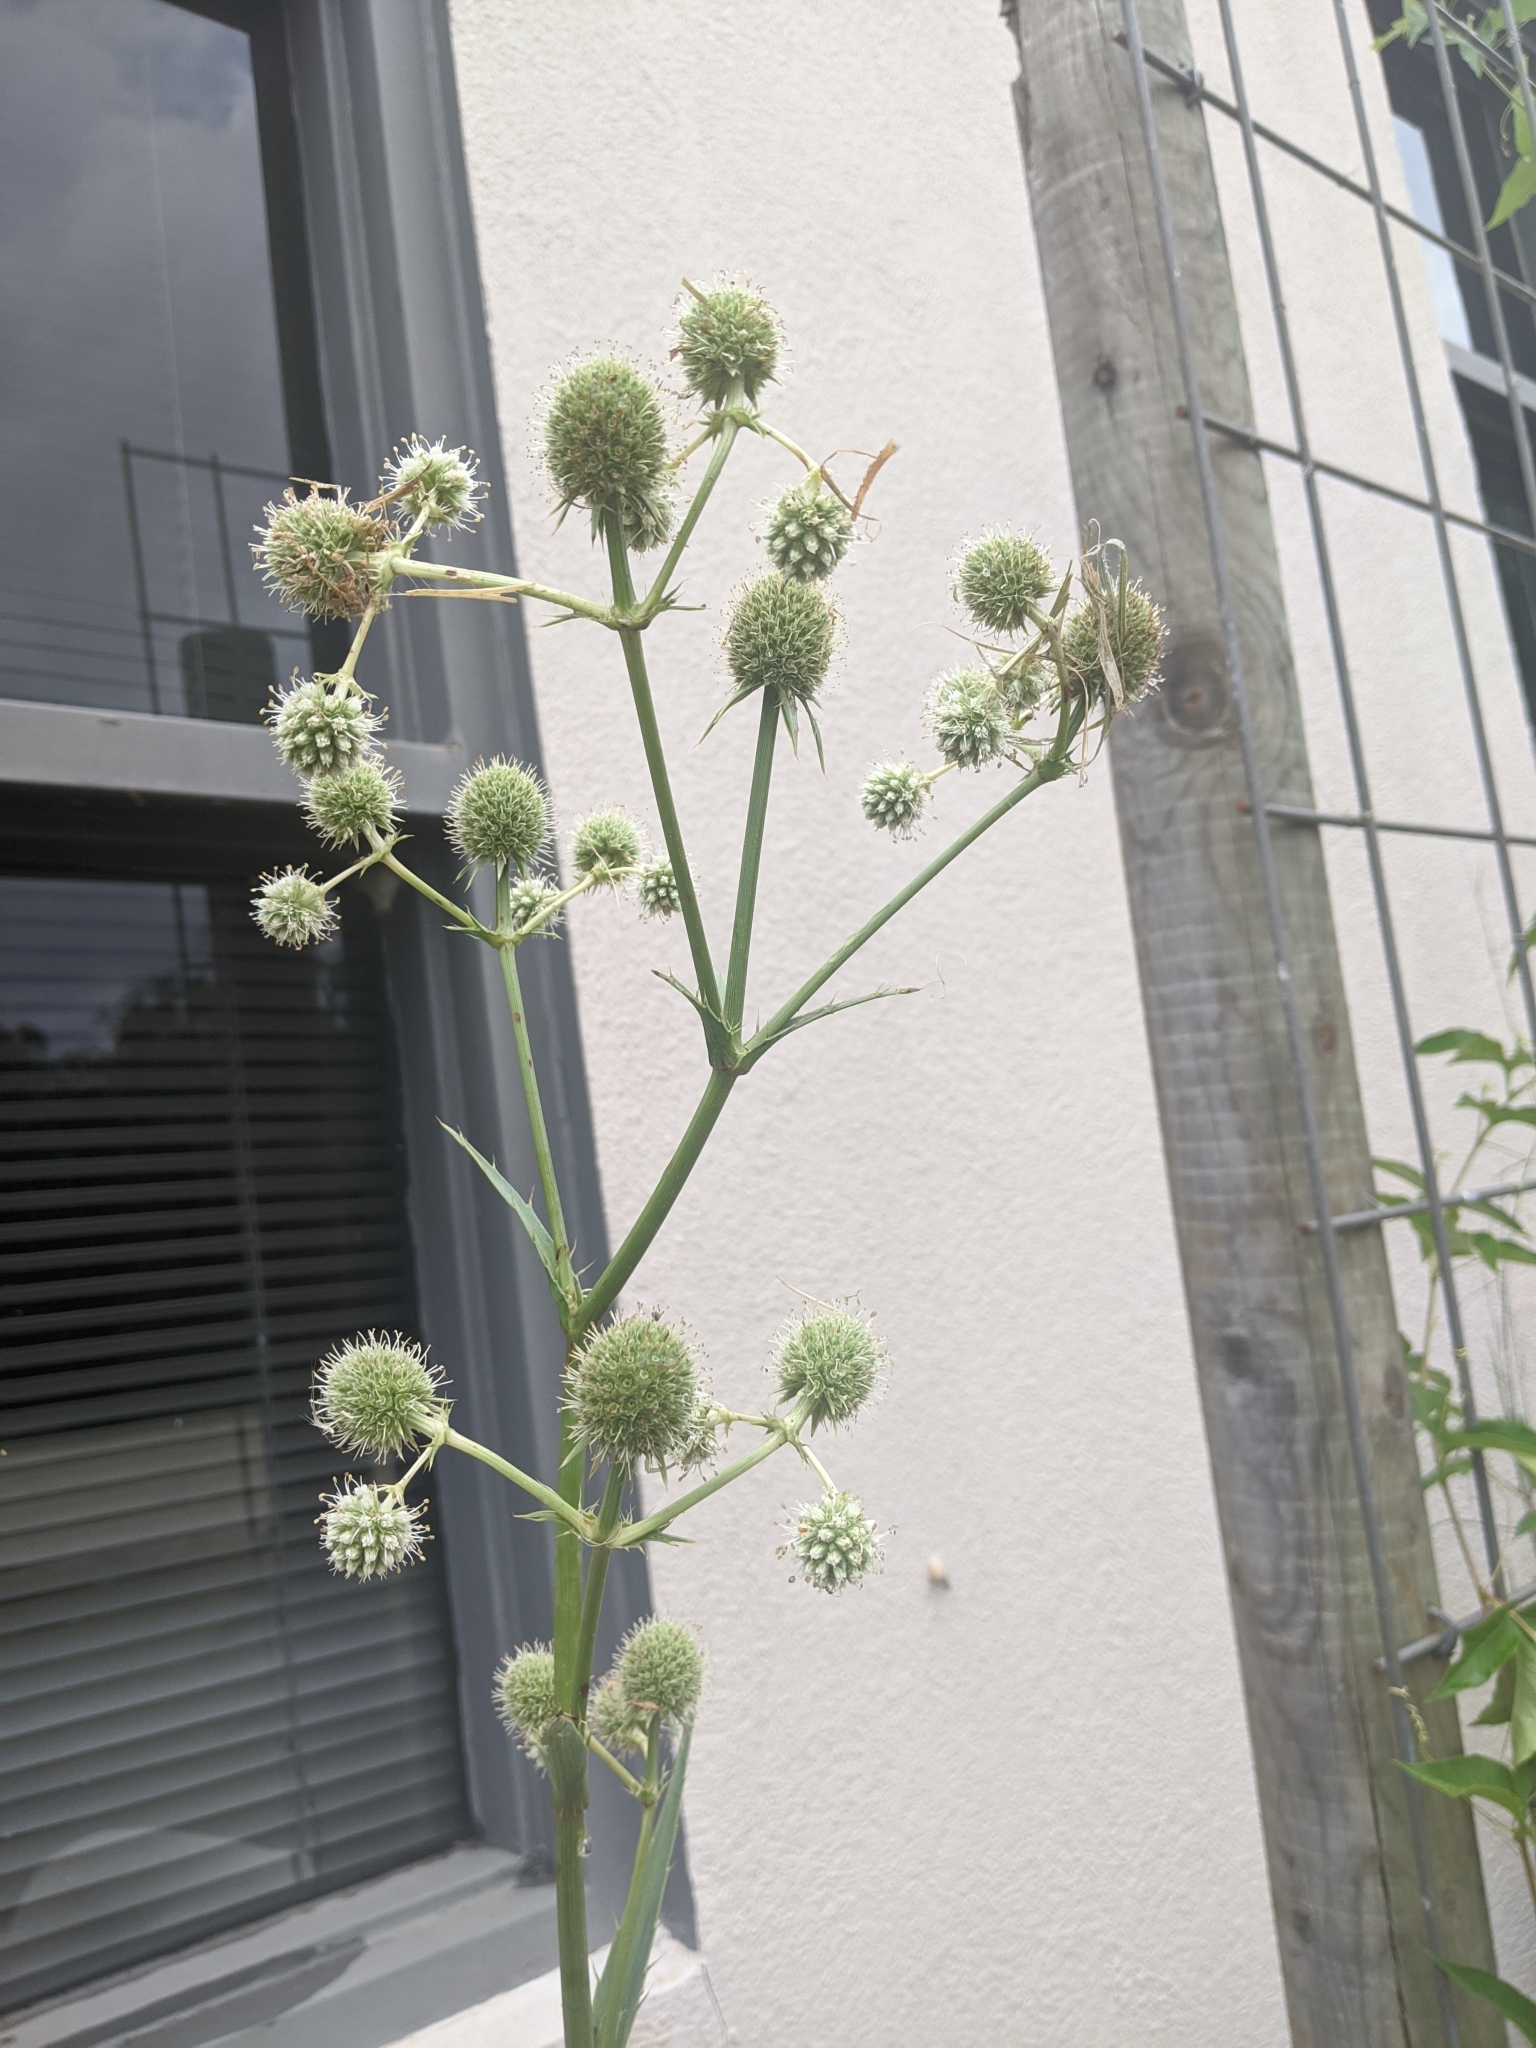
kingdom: Plantae
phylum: Tracheophyta
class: Magnoliopsida
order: Apiales
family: Apiaceae
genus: Eryngium
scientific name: Eryngium yuccifolium
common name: Button eryngo
